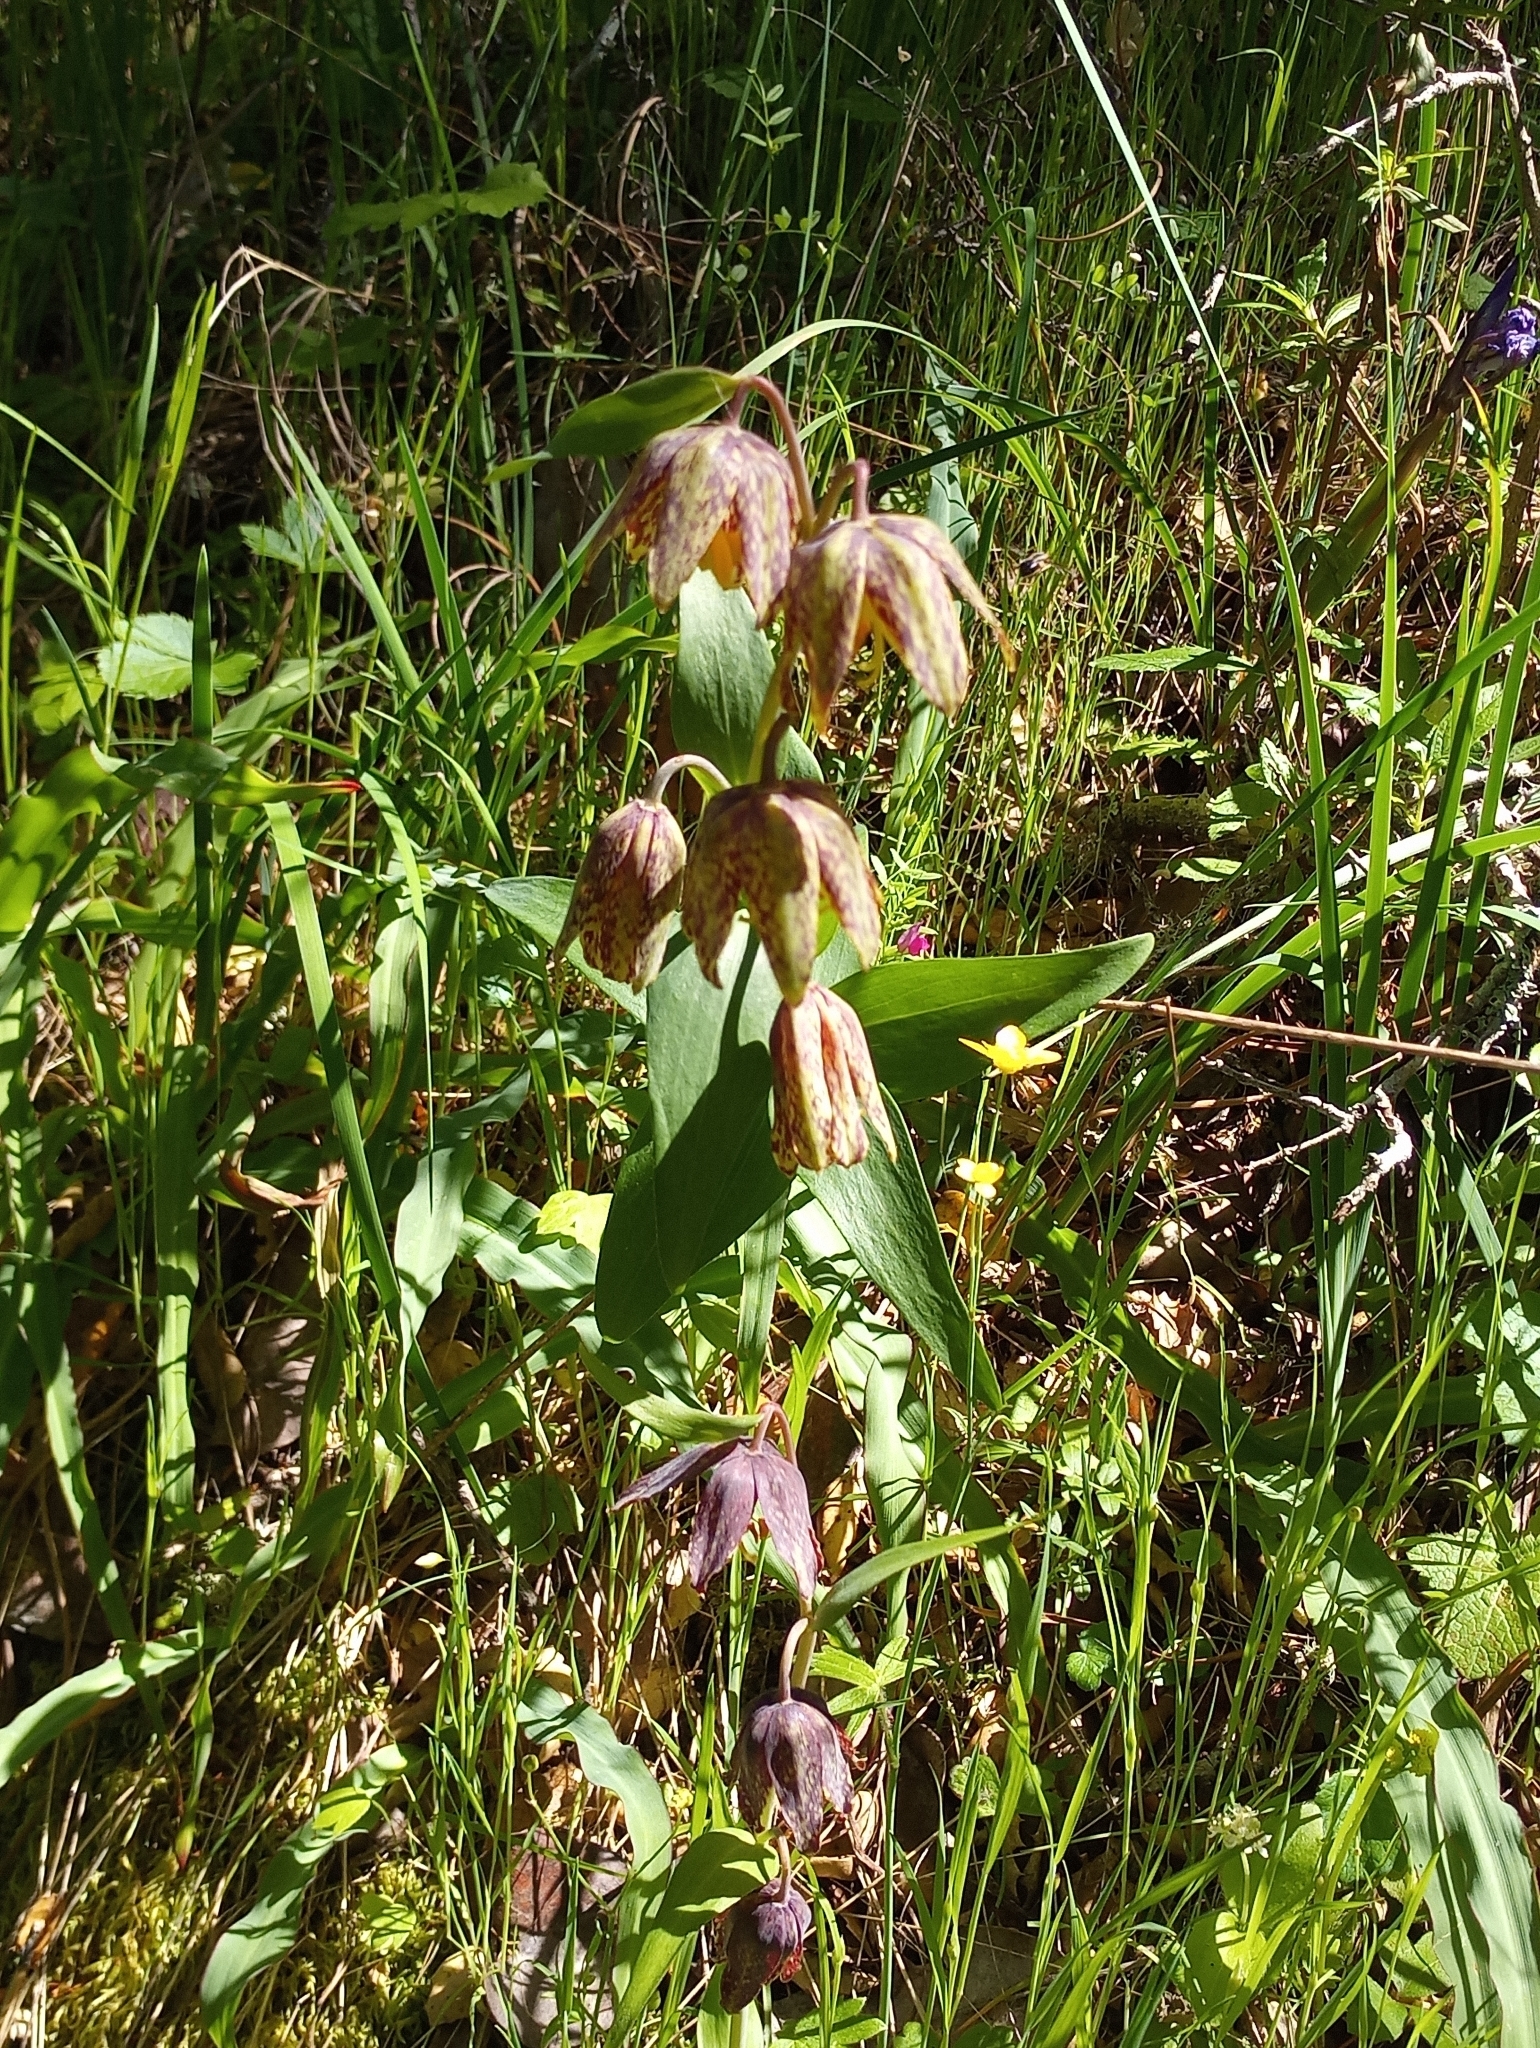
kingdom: Plantae
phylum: Tracheophyta
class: Liliopsida
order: Liliales
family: Liliaceae
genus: Fritillaria
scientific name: Fritillaria affinis
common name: Ojai fritillary
